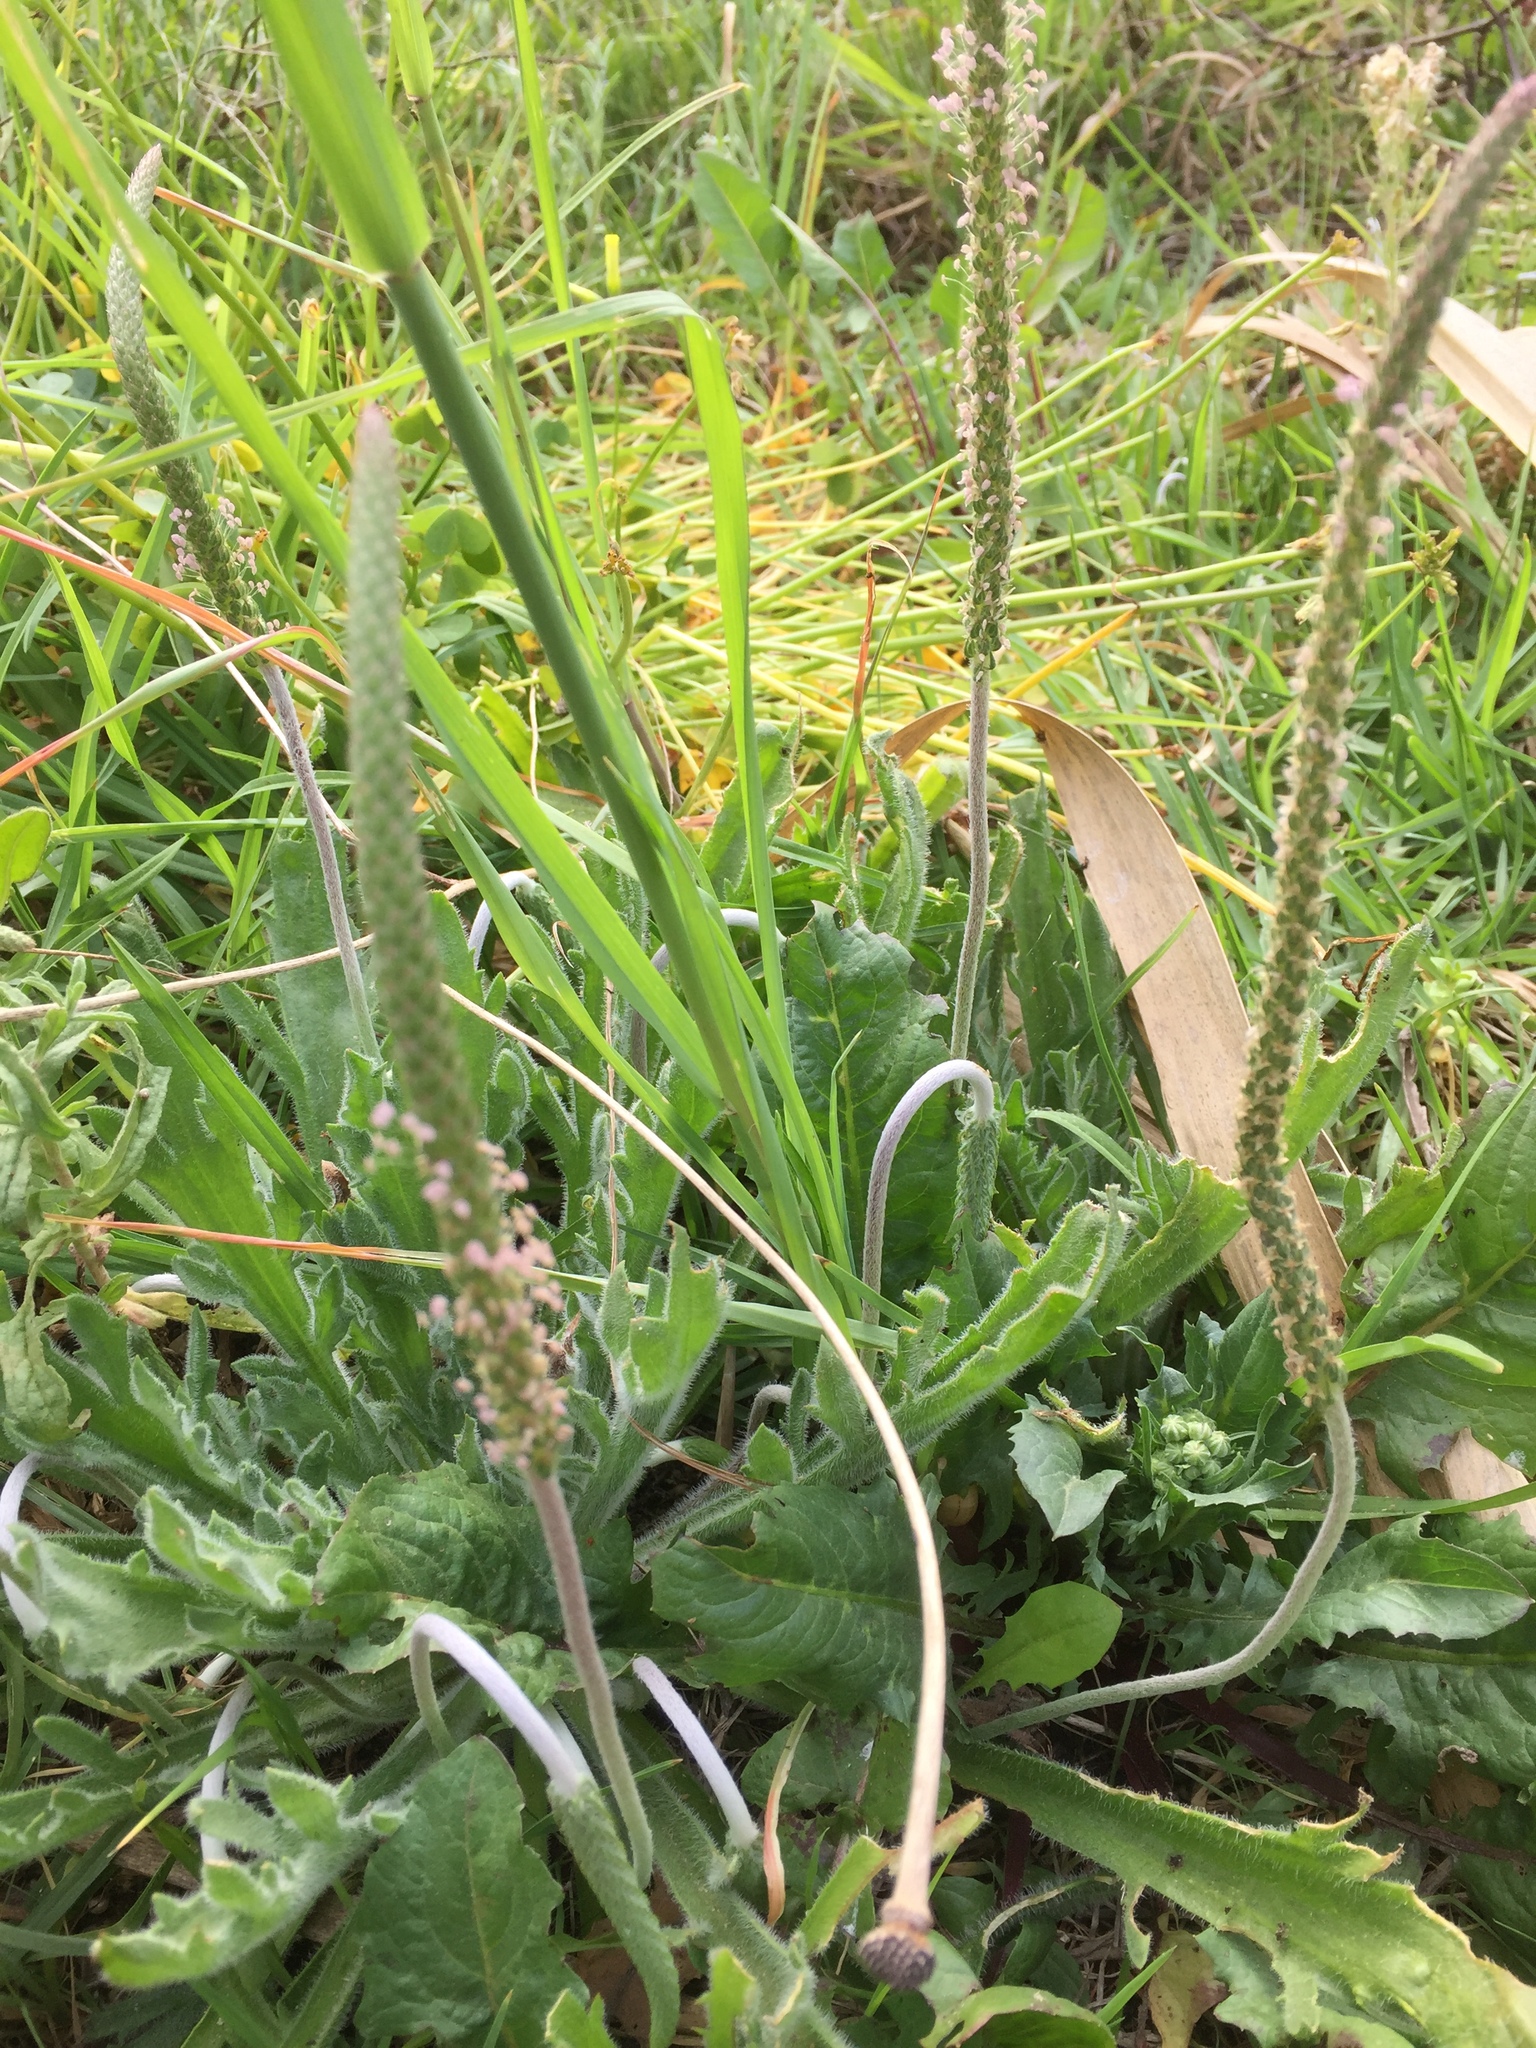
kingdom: Plantae
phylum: Tracheophyta
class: Magnoliopsida
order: Lamiales
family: Plantaginaceae
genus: Plantago
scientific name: Plantago coronopus
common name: Buck's-horn plantain
